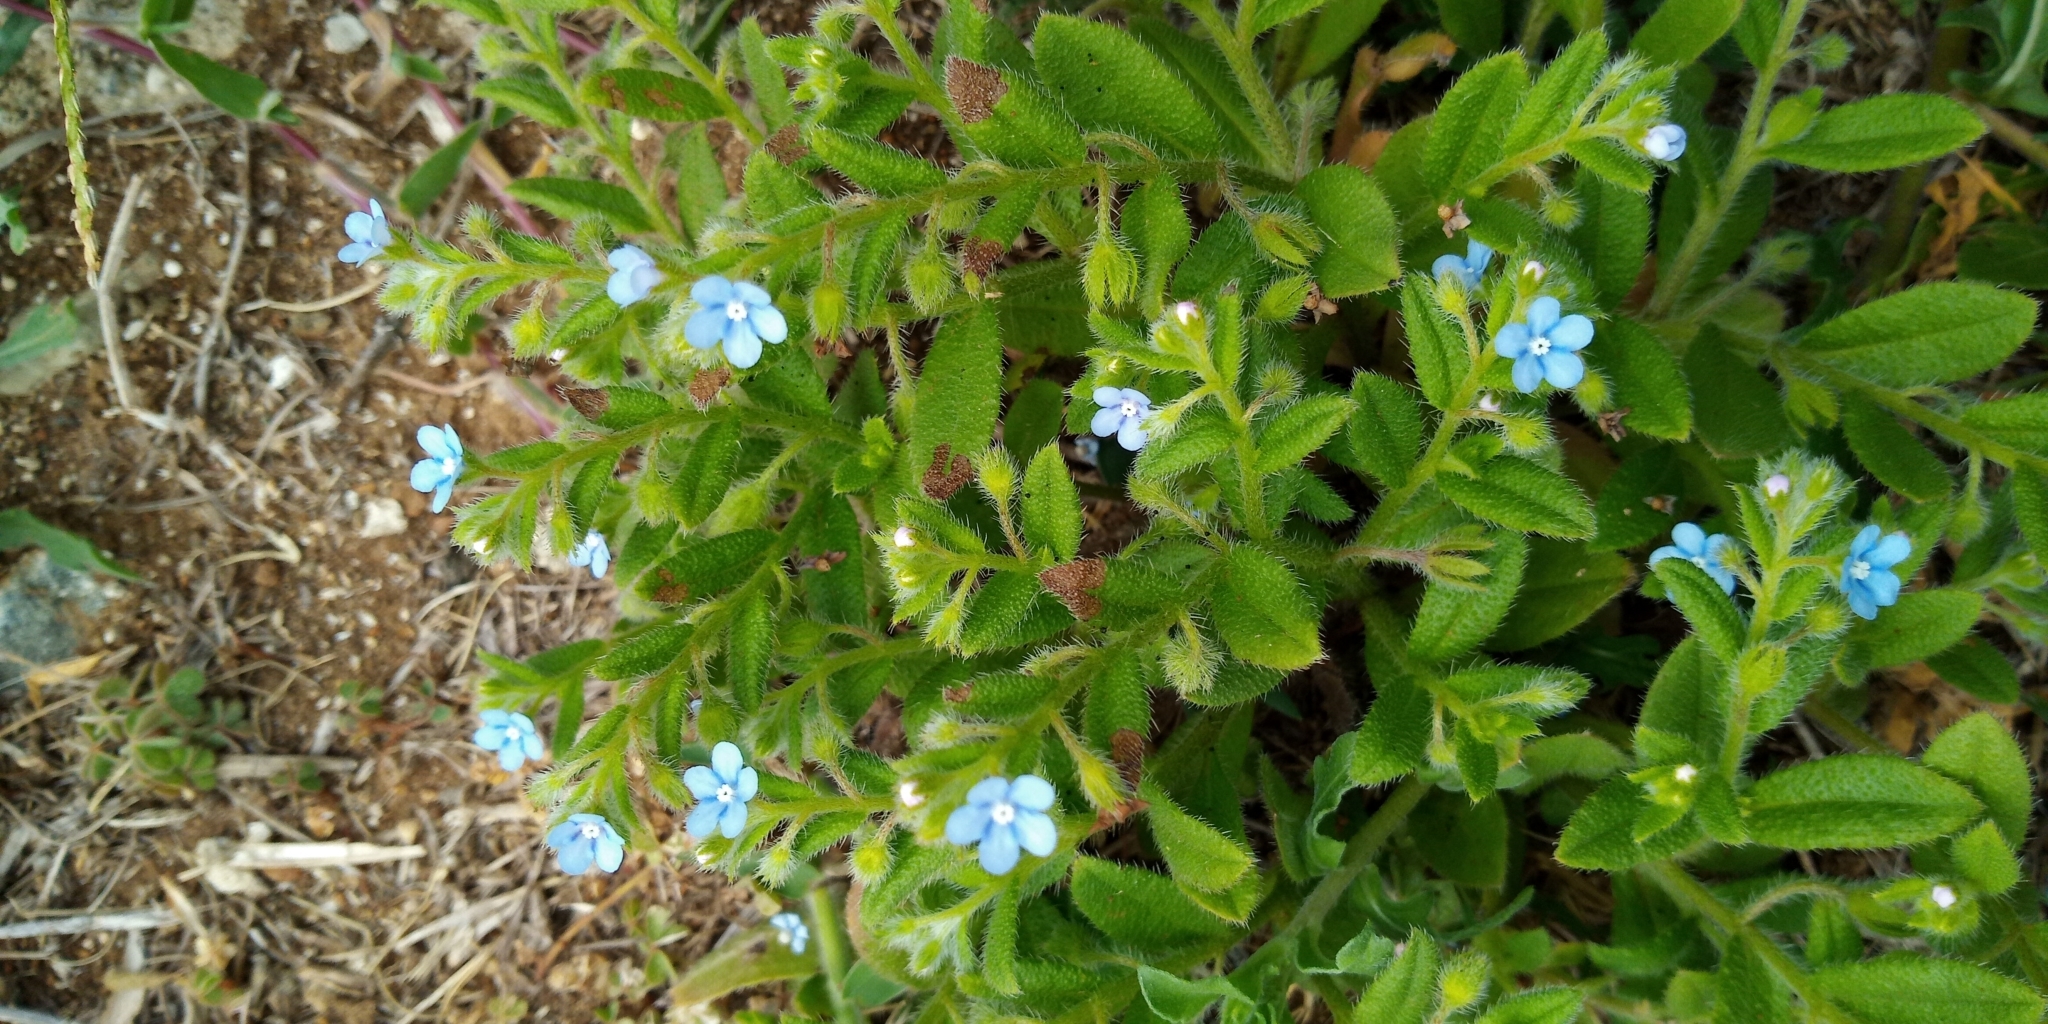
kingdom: Plantae
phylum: Tracheophyta
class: Magnoliopsida
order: Boraginales
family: Boraginaceae
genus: Thyrocarpus
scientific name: Thyrocarpus sampsonii
